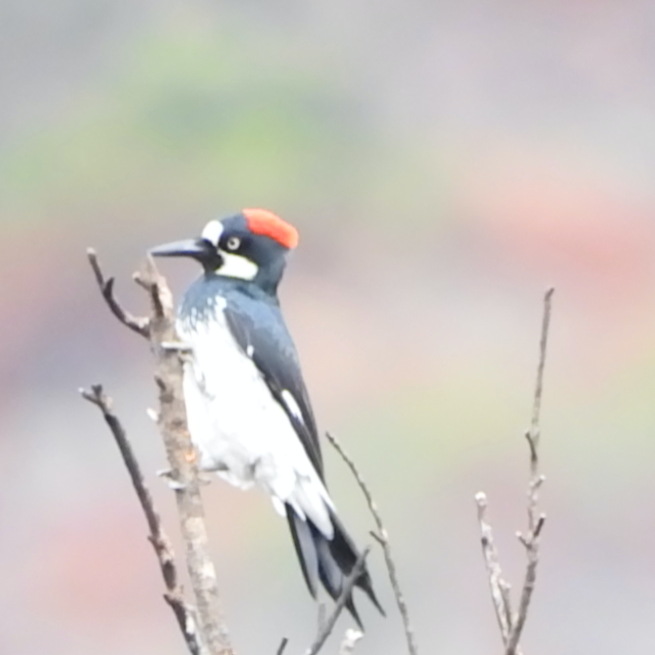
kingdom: Animalia
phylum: Chordata
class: Aves
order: Piciformes
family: Picidae
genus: Melanerpes
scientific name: Melanerpes formicivorus
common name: Acorn woodpecker
